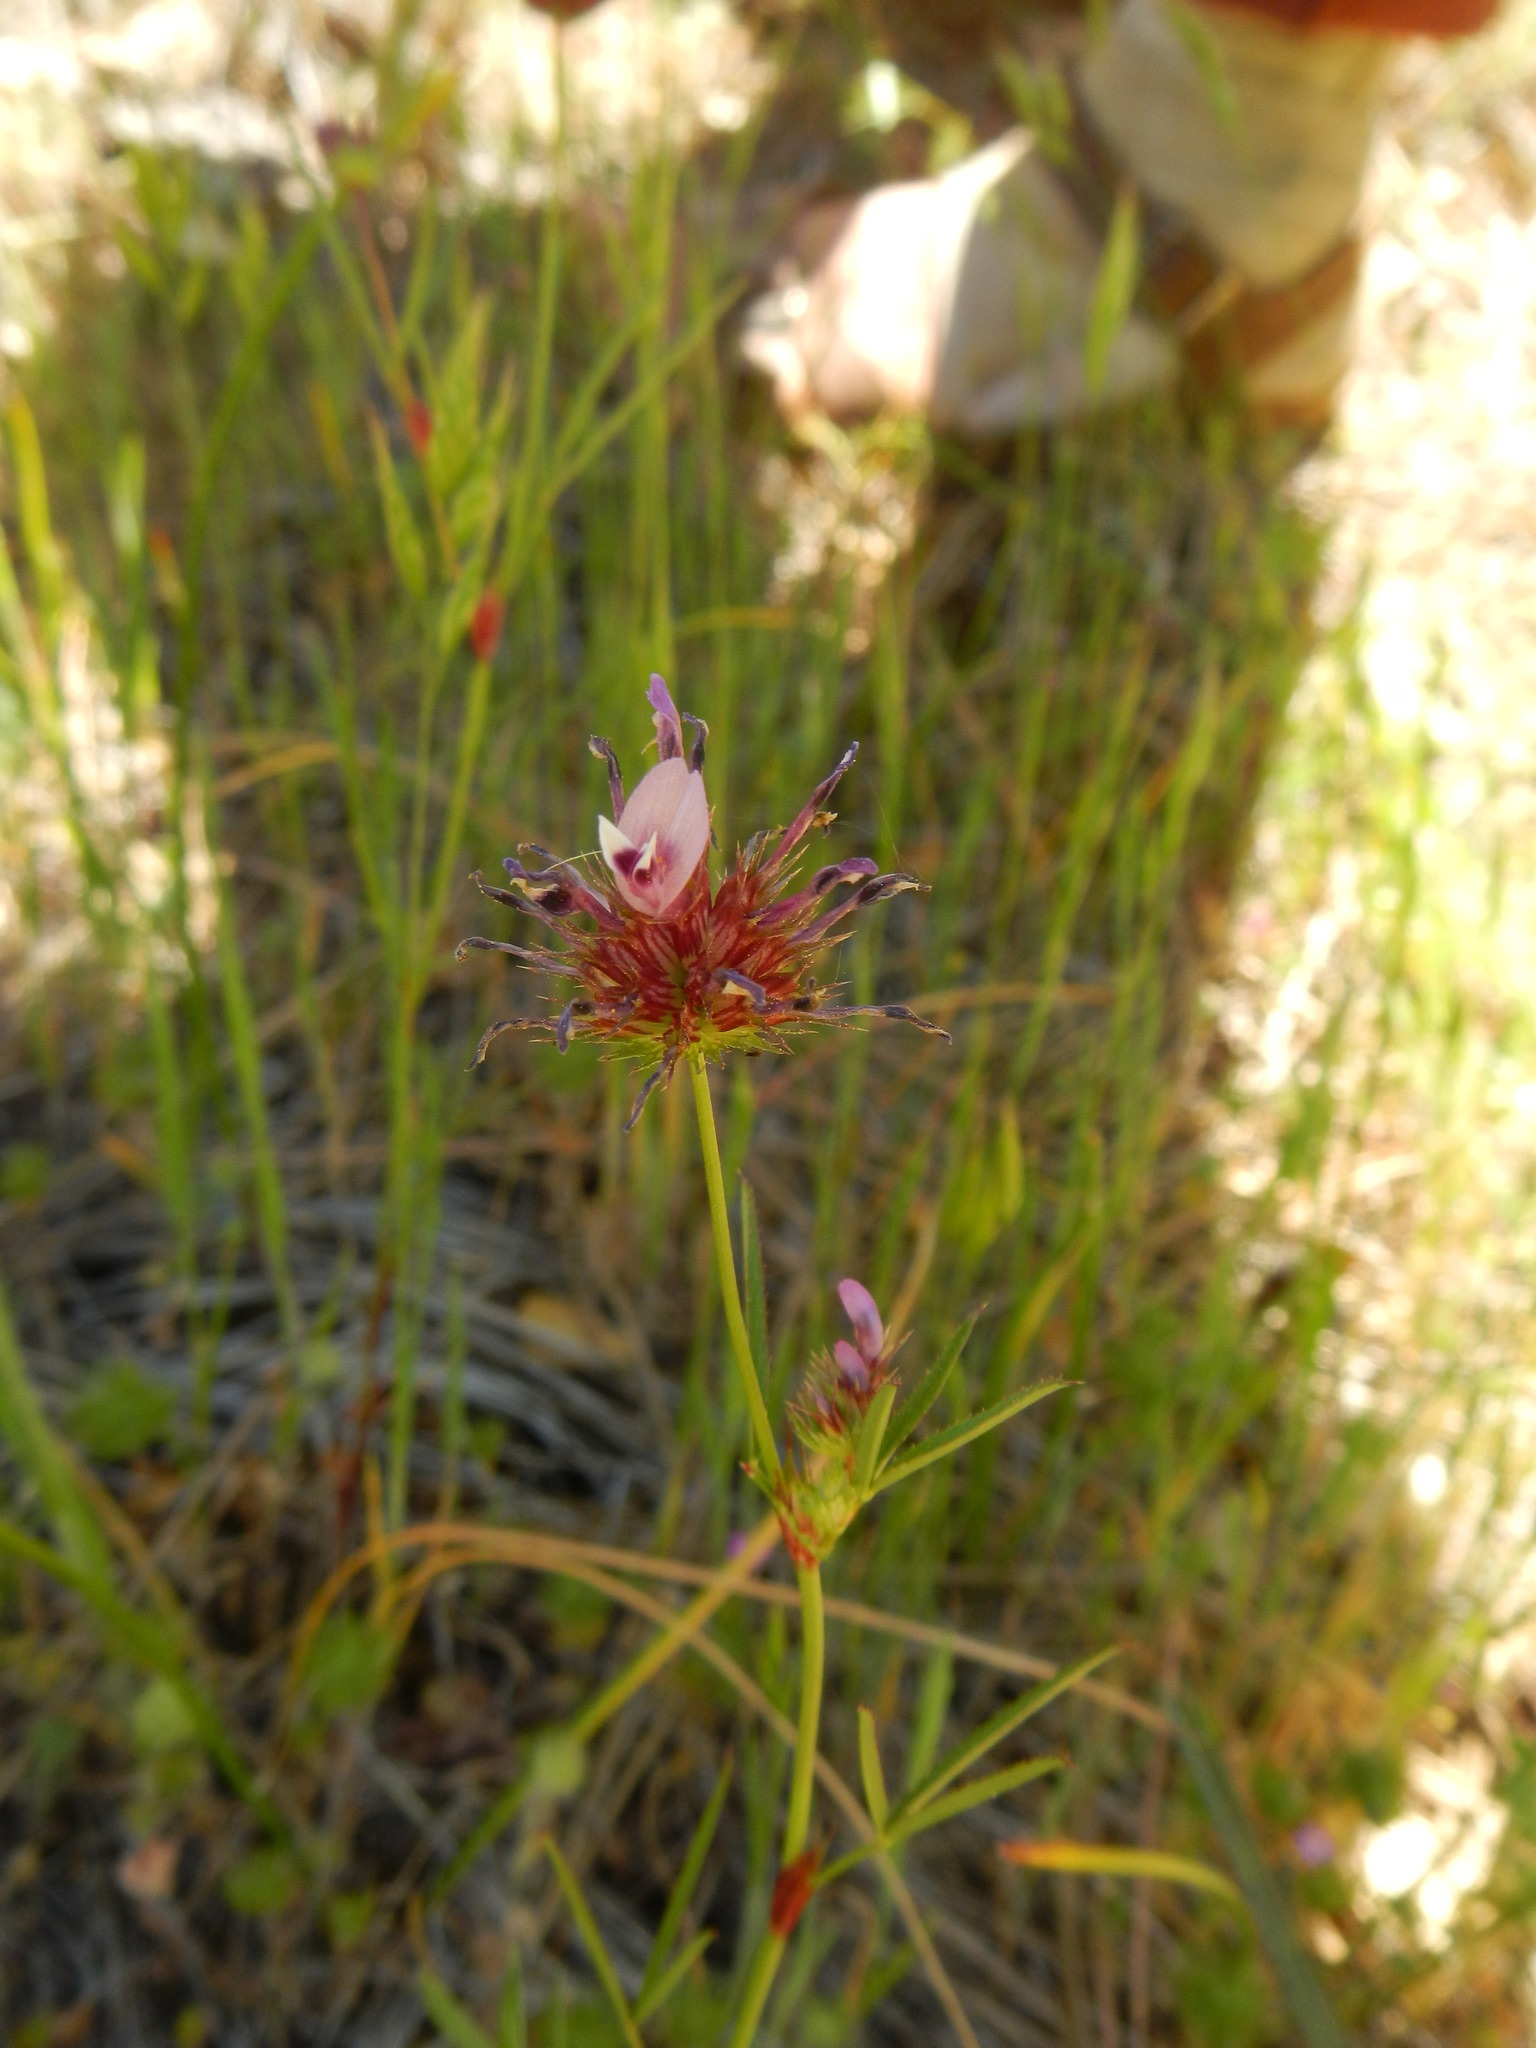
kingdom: Plantae
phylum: Tracheophyta
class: Magnoliopsida
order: Fabales
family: Fabaceae
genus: Trifolium
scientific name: Trifolium willdenovii
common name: Tomcat clover
